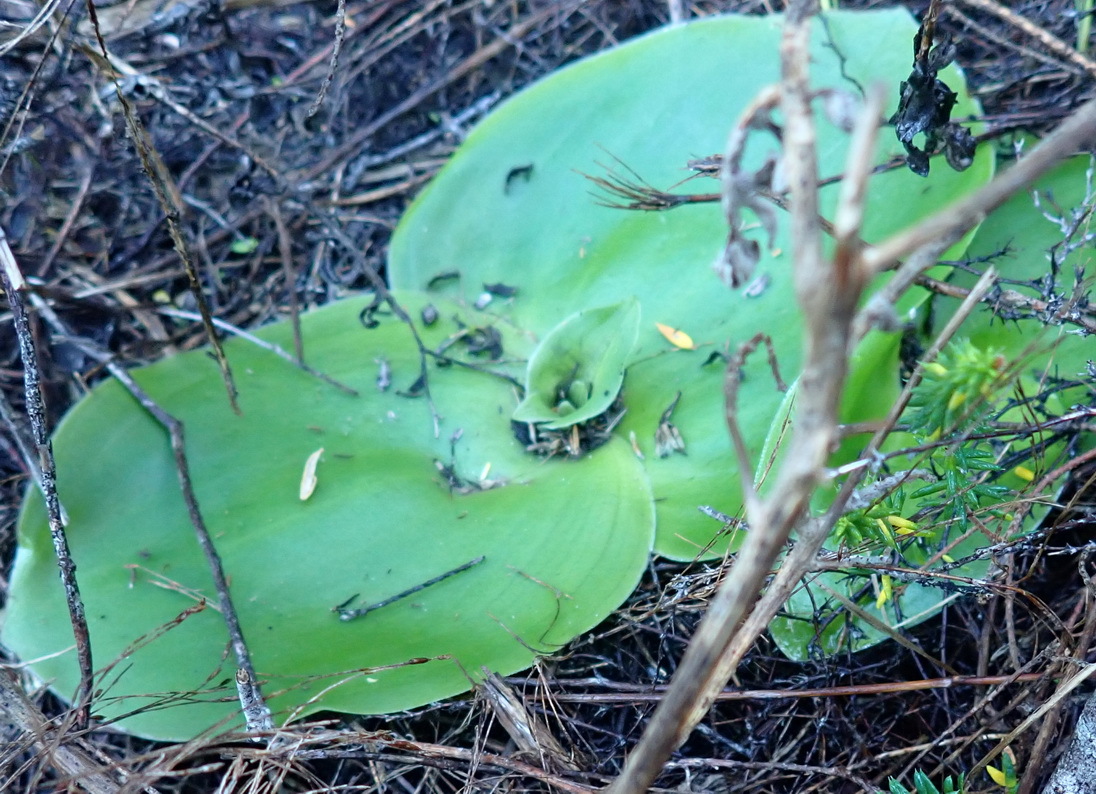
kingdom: Plantae
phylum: Tracheophyta
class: Liliopsida
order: Asparagales
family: Orchidaceae
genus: Satyrium
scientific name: Satyrium princeps
